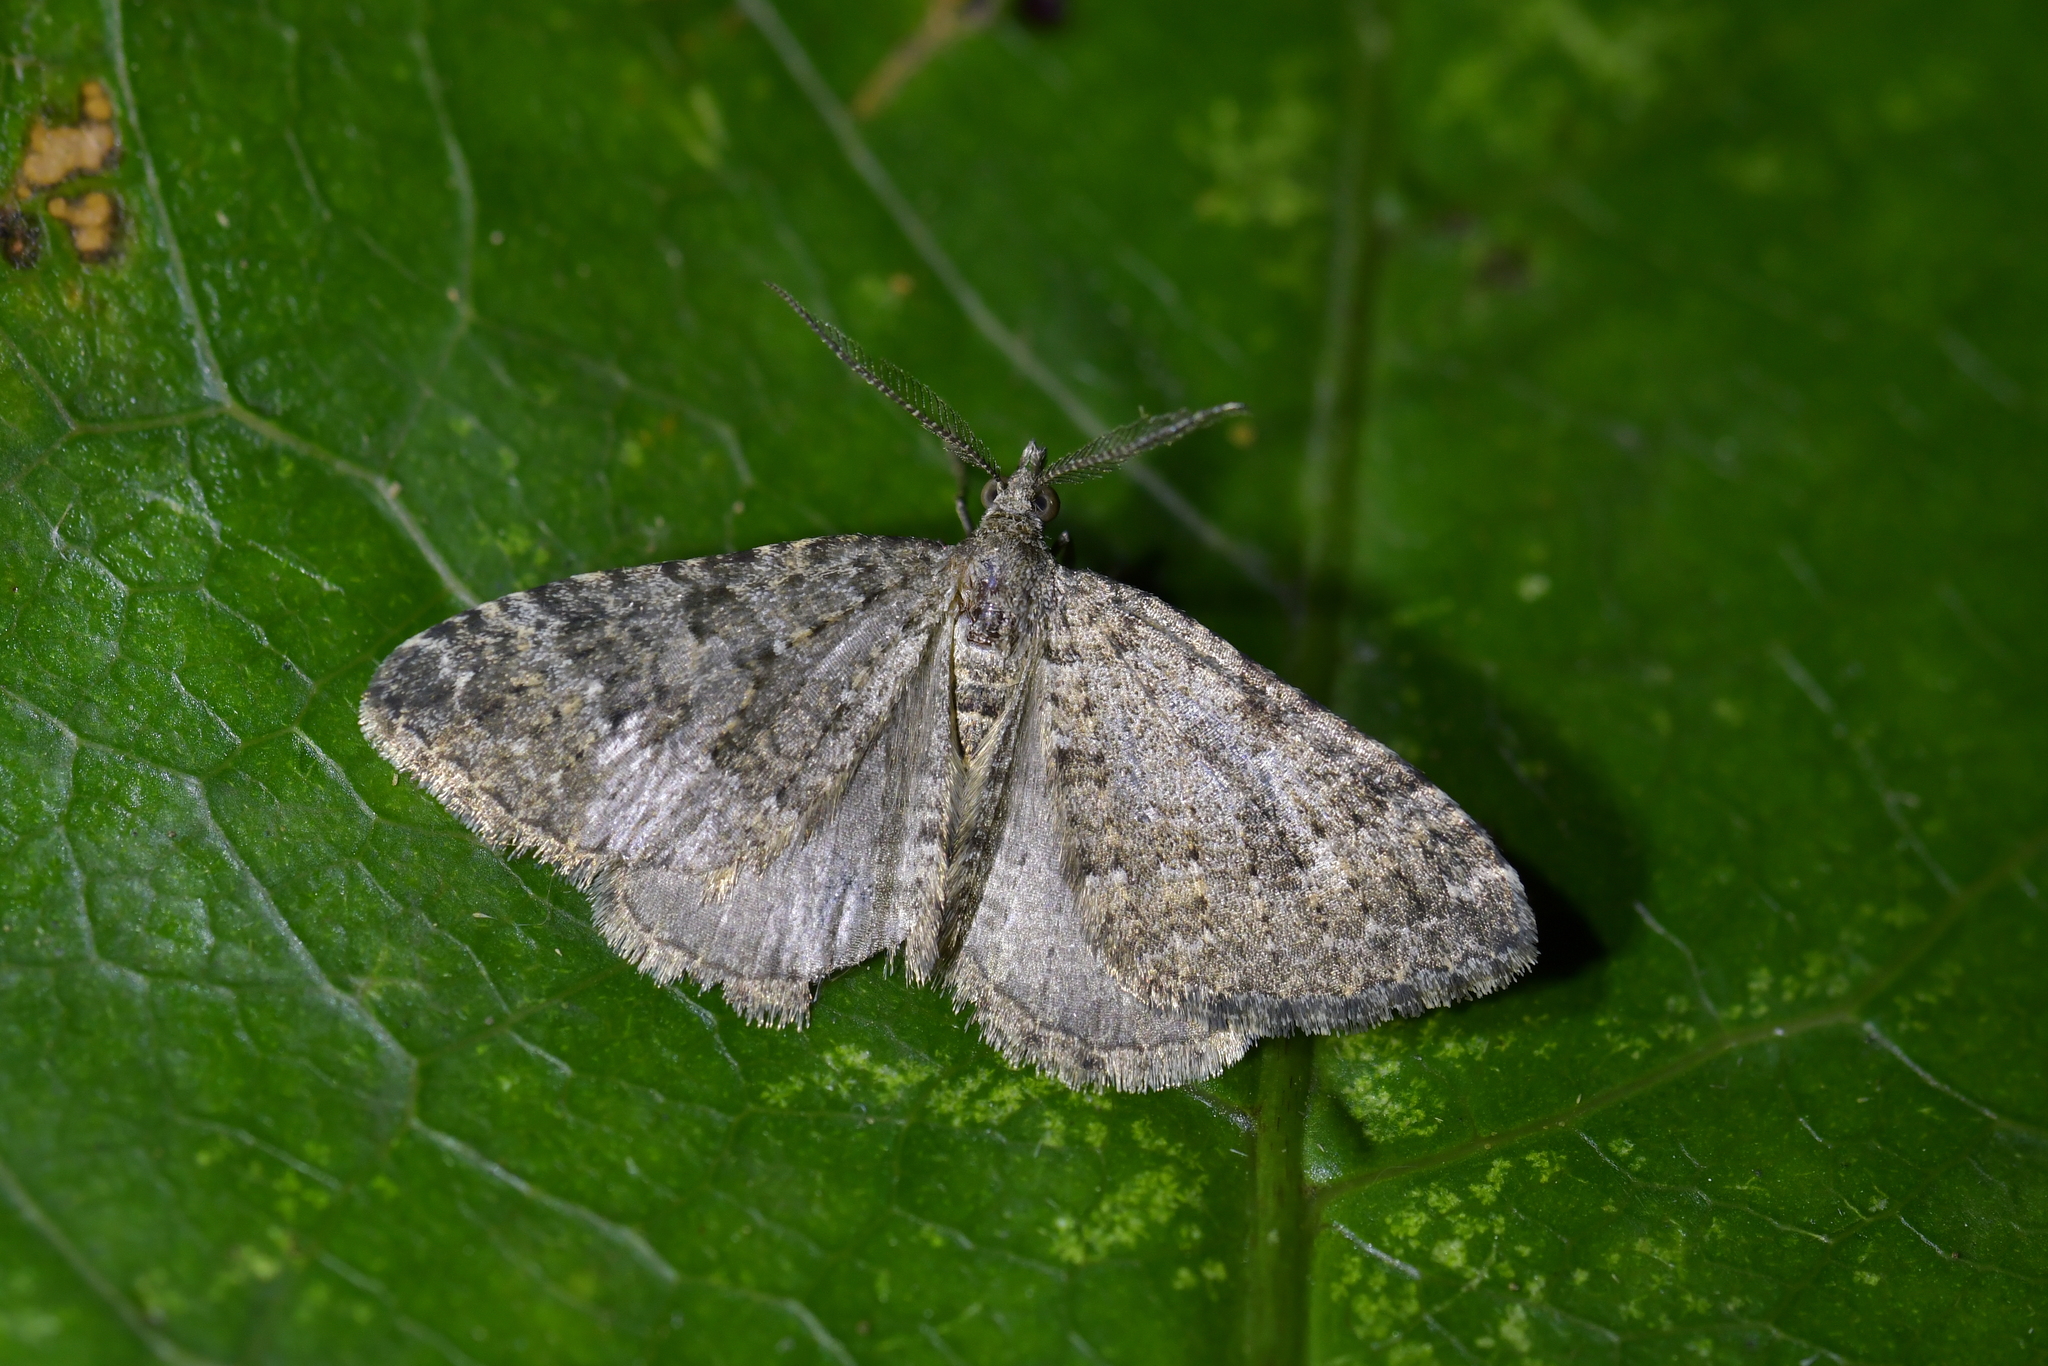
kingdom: Animalia
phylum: Arthropoda
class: Insecta
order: Lepidoptera
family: Geometridae
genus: Helastia
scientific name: Helastia semisignata
